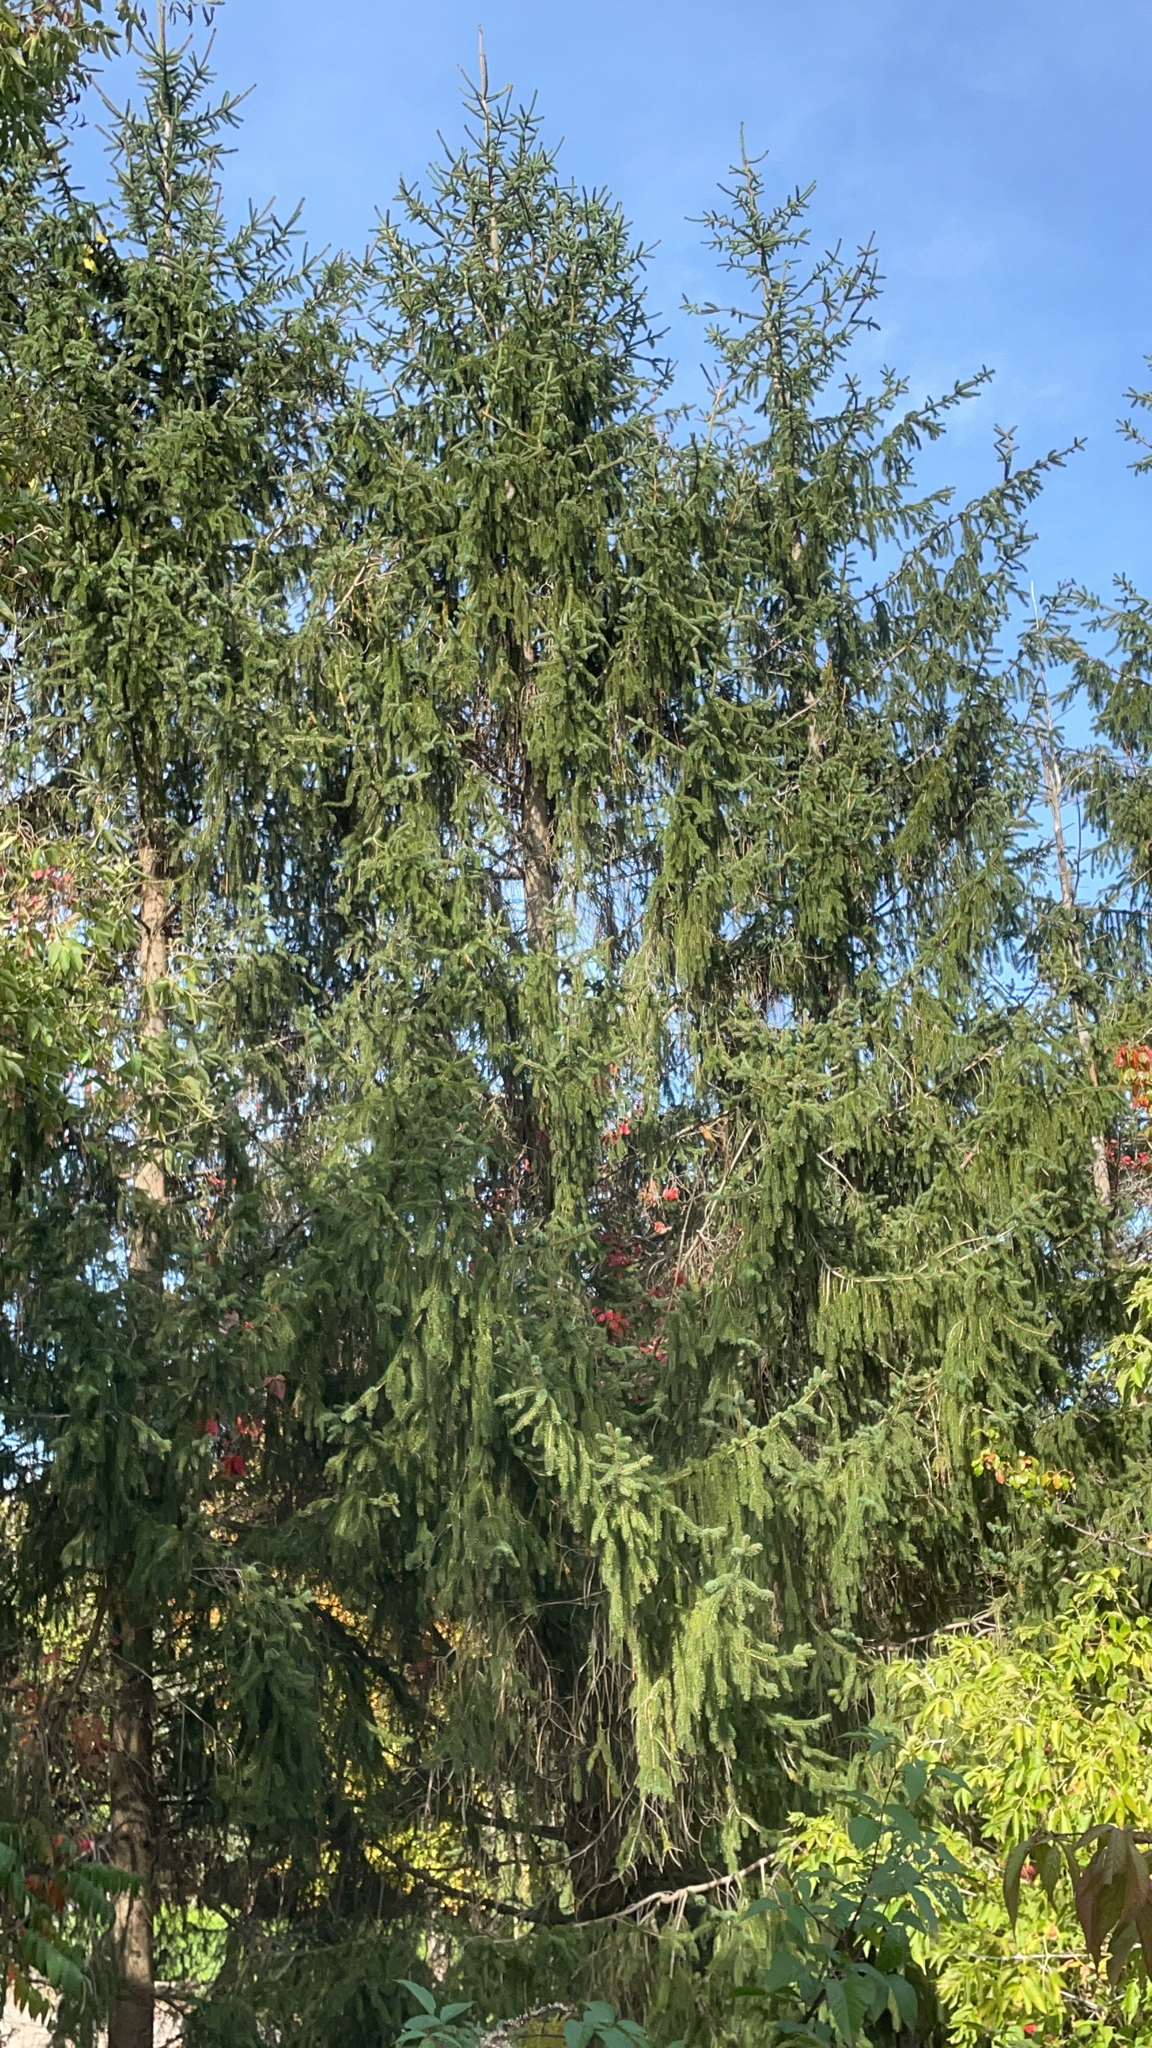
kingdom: Plantae
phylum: Tracheophyta
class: Pinopsida
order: Pinales
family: Pinaceae
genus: Picea
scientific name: Picea abies
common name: Norway spruce
